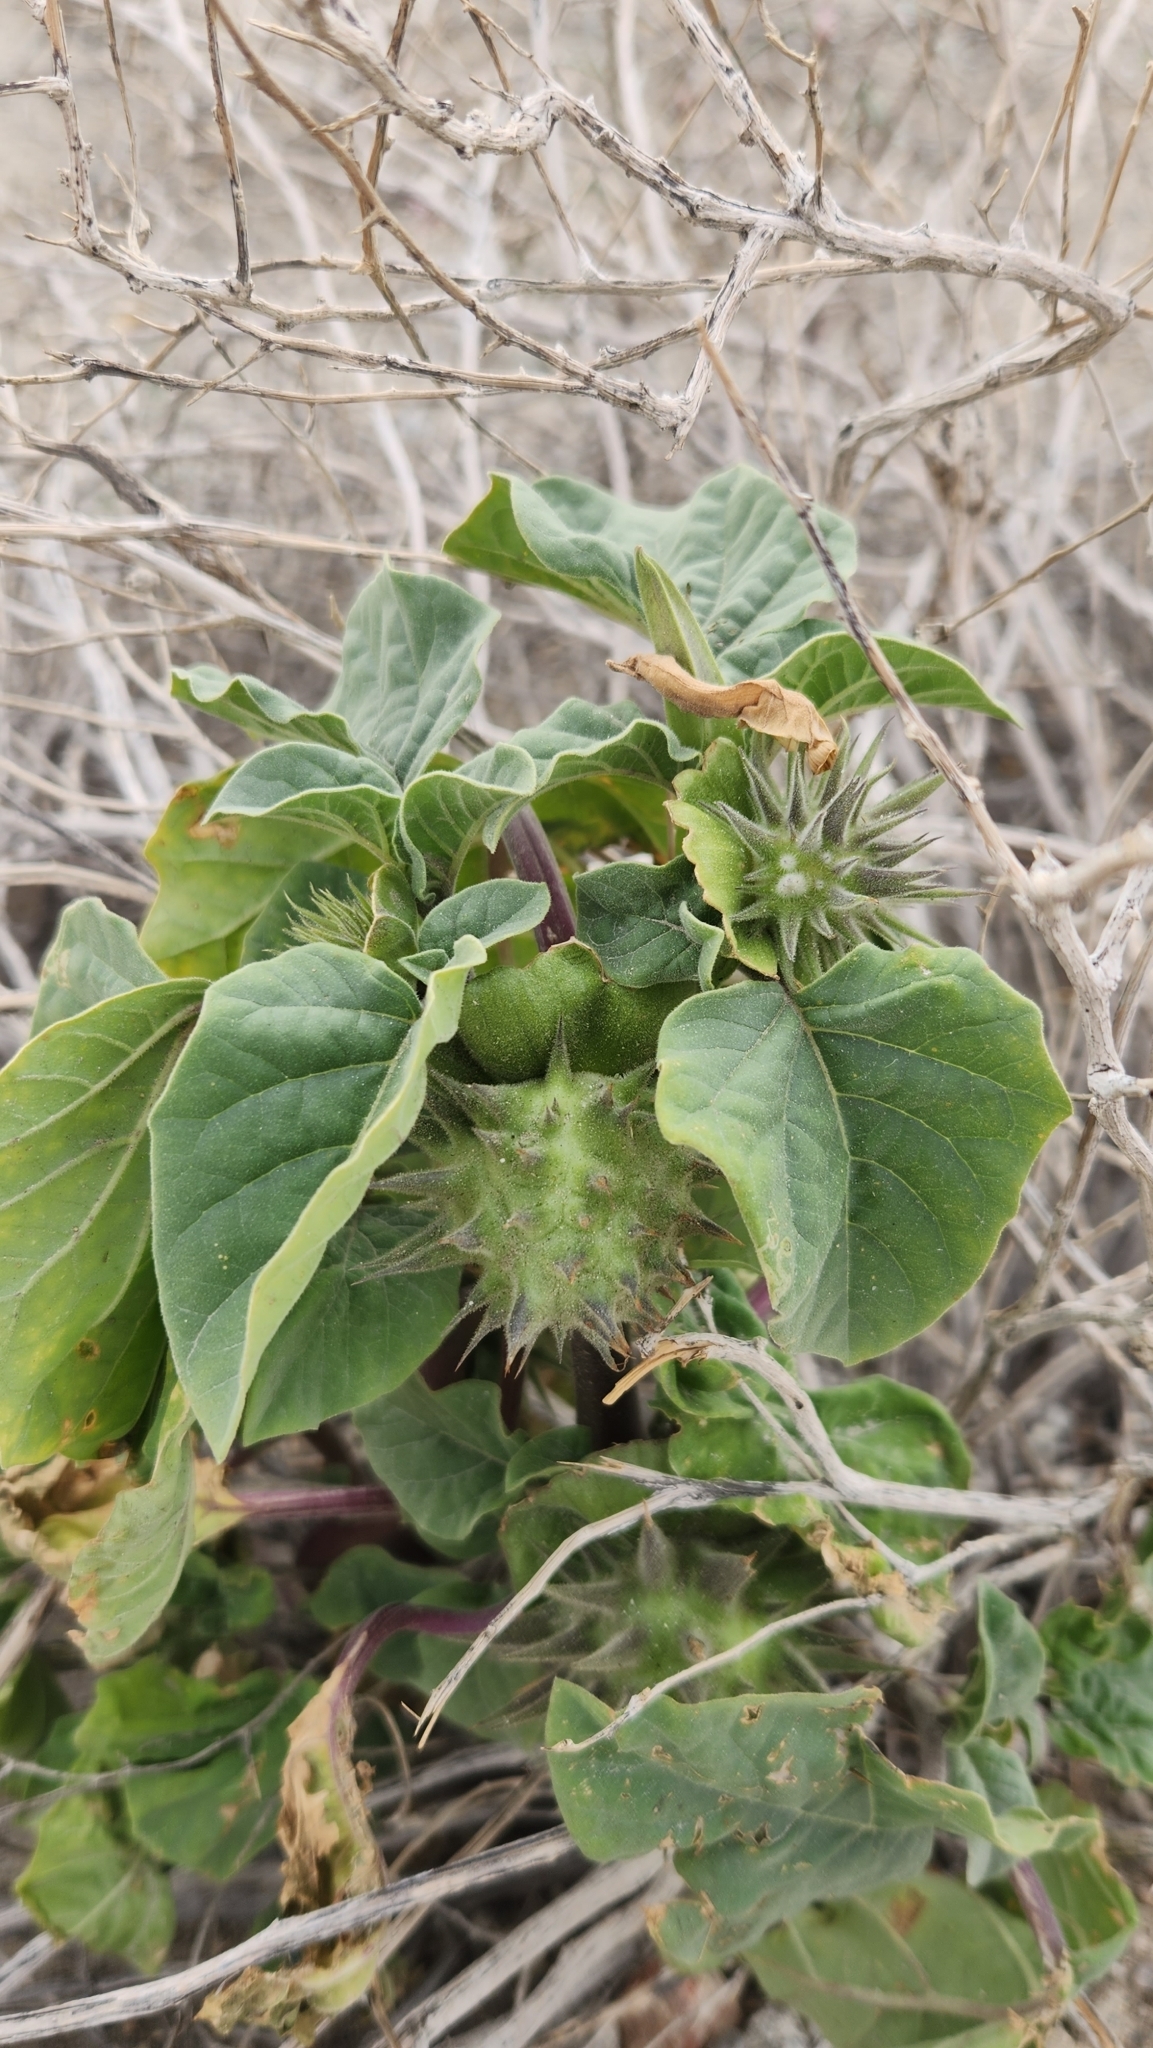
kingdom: Plantae
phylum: Tracheophyta
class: Magnoliopsida
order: Solanales
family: Solanaceae
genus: Datura
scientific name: Datura discolor
